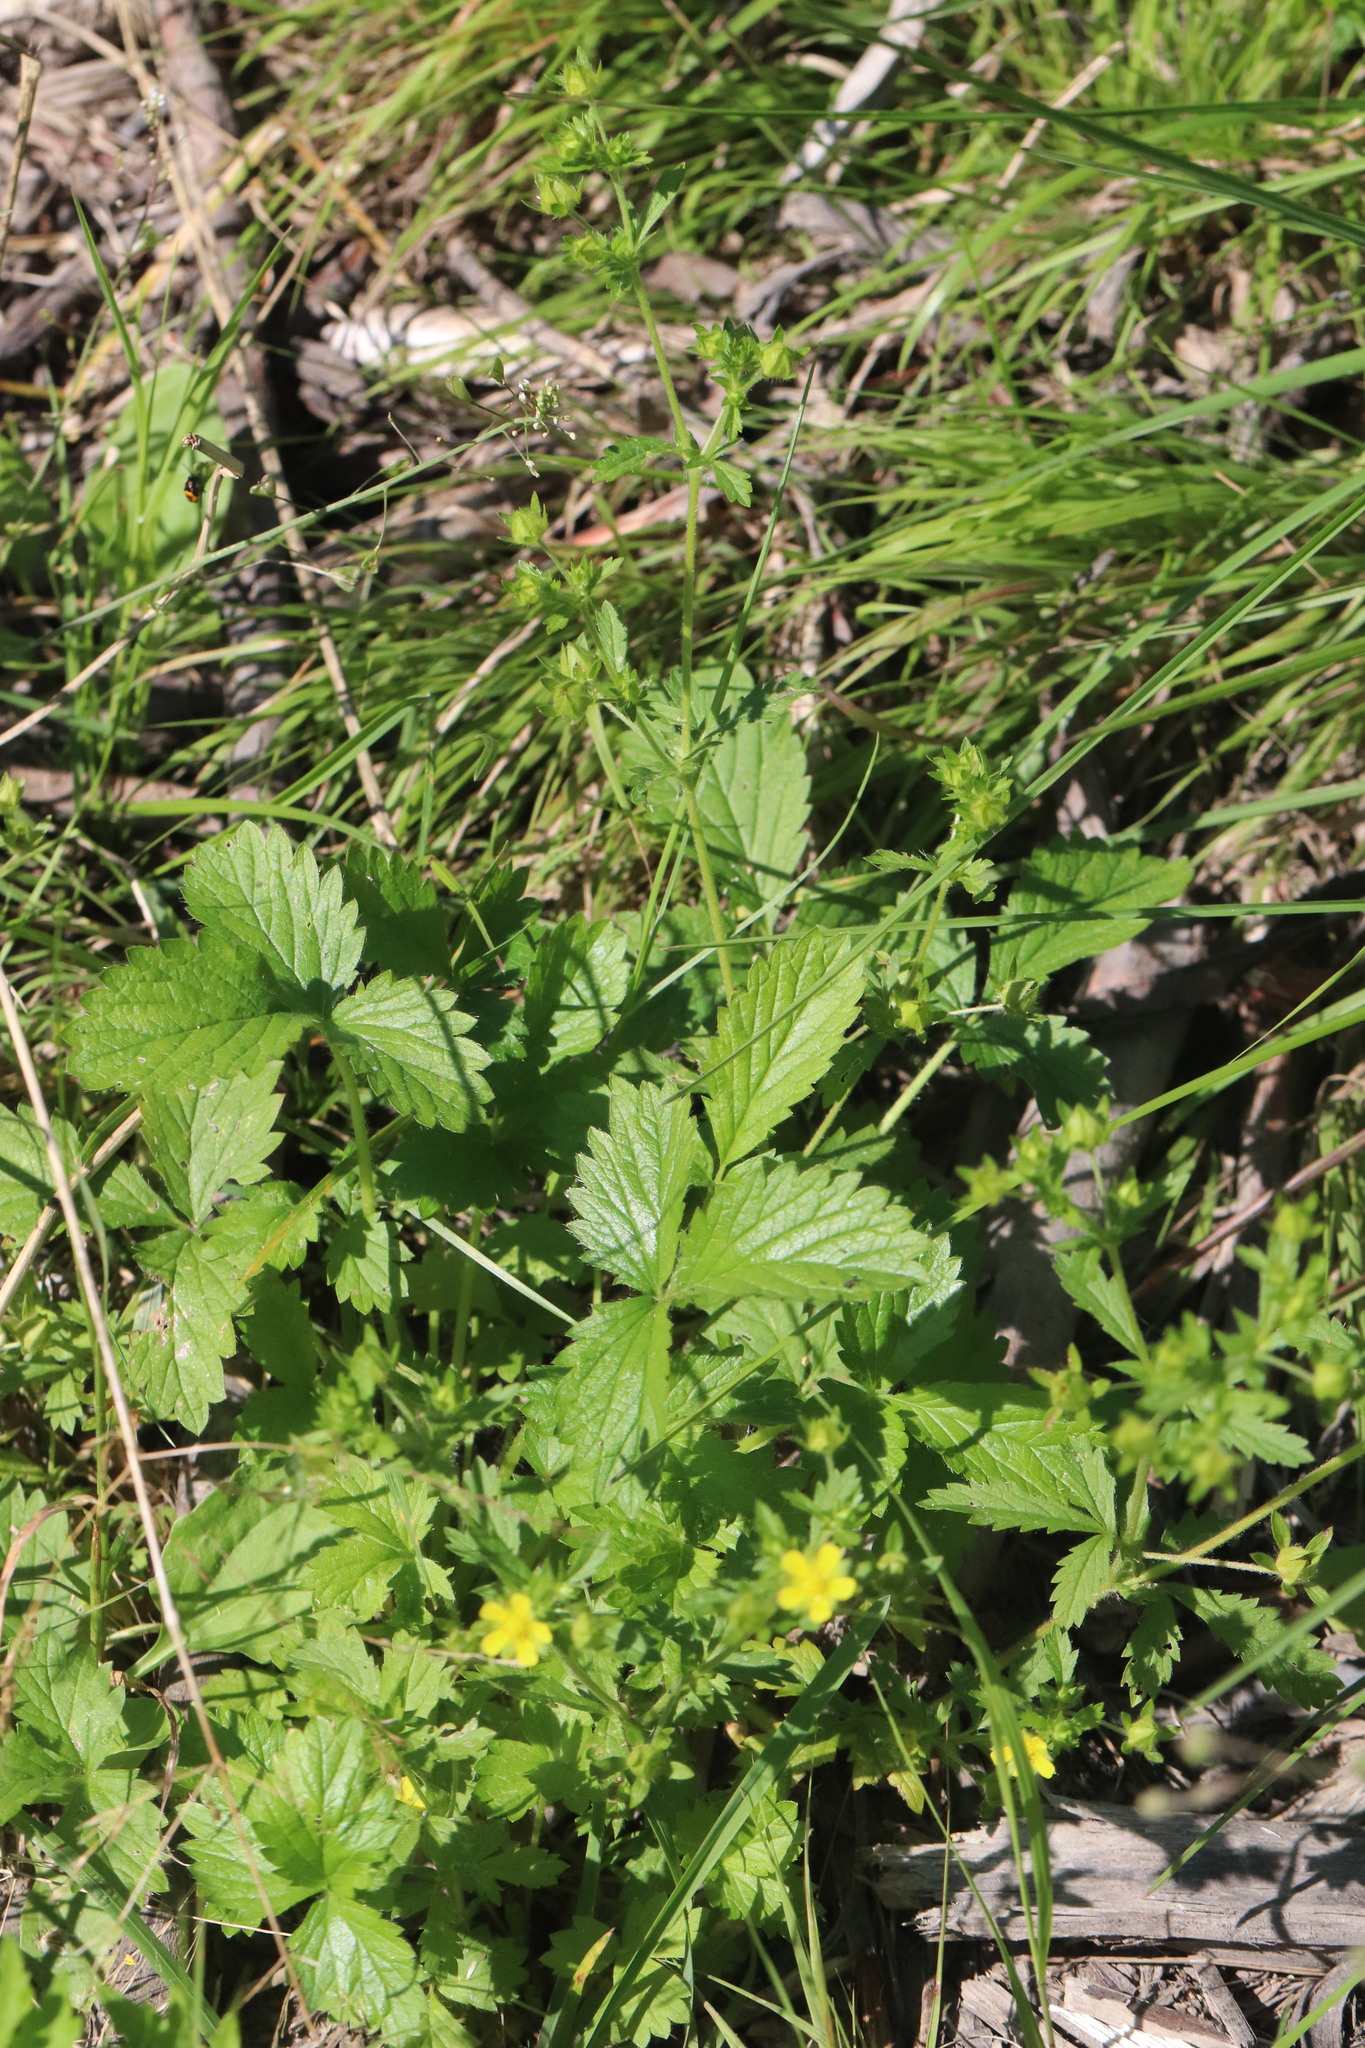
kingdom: Plantae
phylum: Tracheophyta
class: Magnoliopsida
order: Rosales
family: Rosaceae
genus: Potentilla
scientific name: Potentilla norvegica
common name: Ternate-leaved cinquefoil
